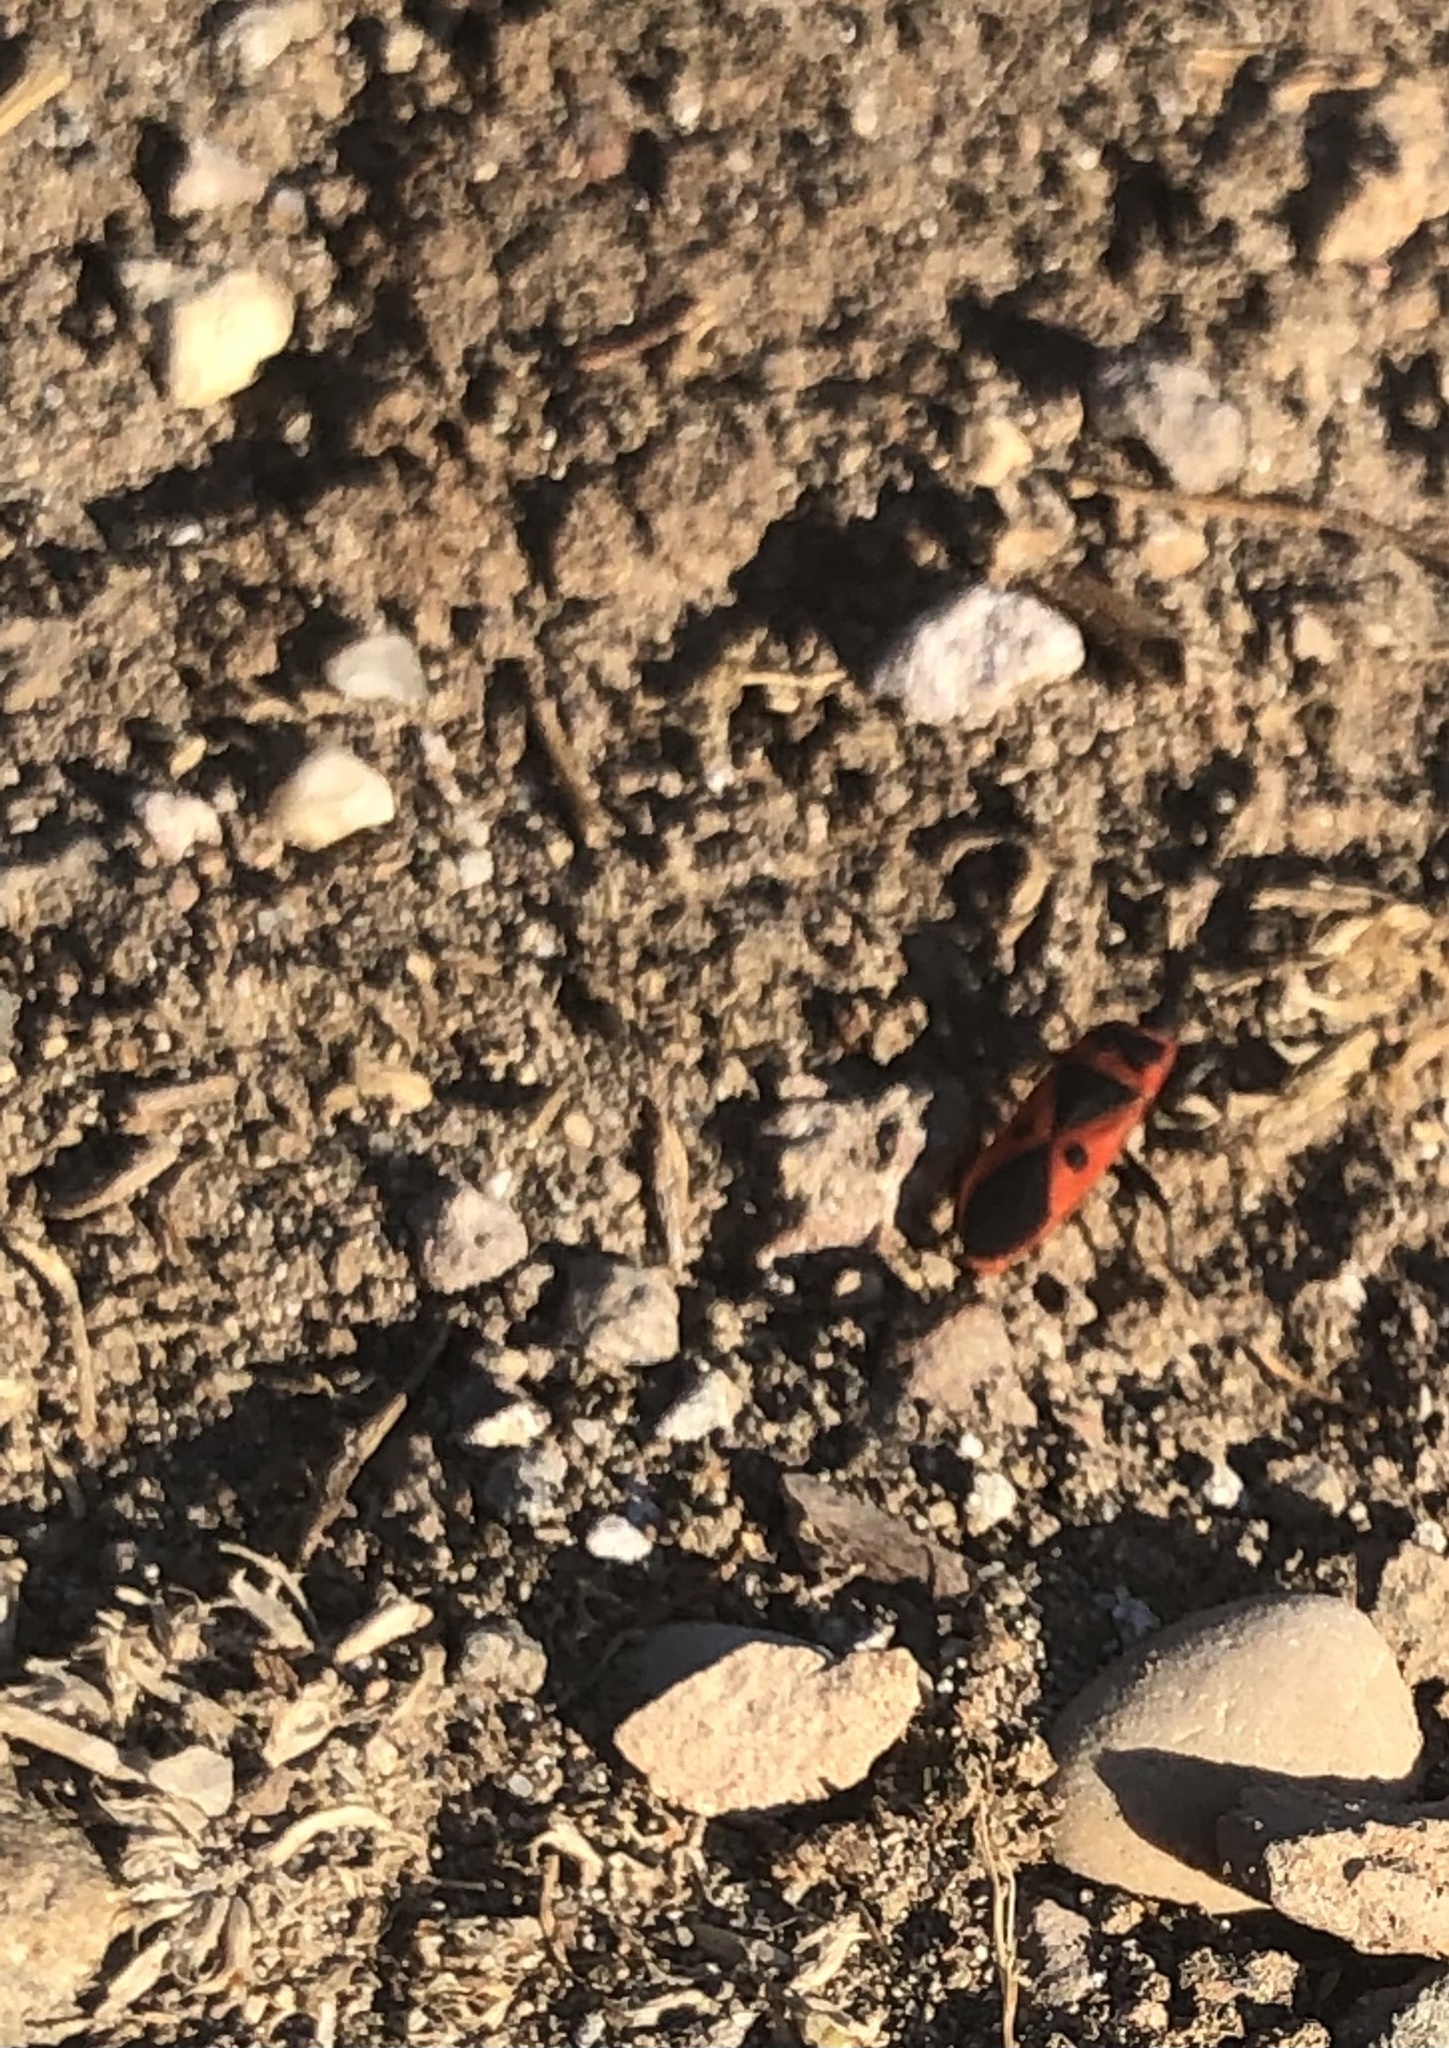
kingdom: Animalia
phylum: Arthropoda
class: Insecta
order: Hemiptera
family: Pyrrhocoridae
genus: Scantius
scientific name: Scantius aegyptius
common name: Red bug
